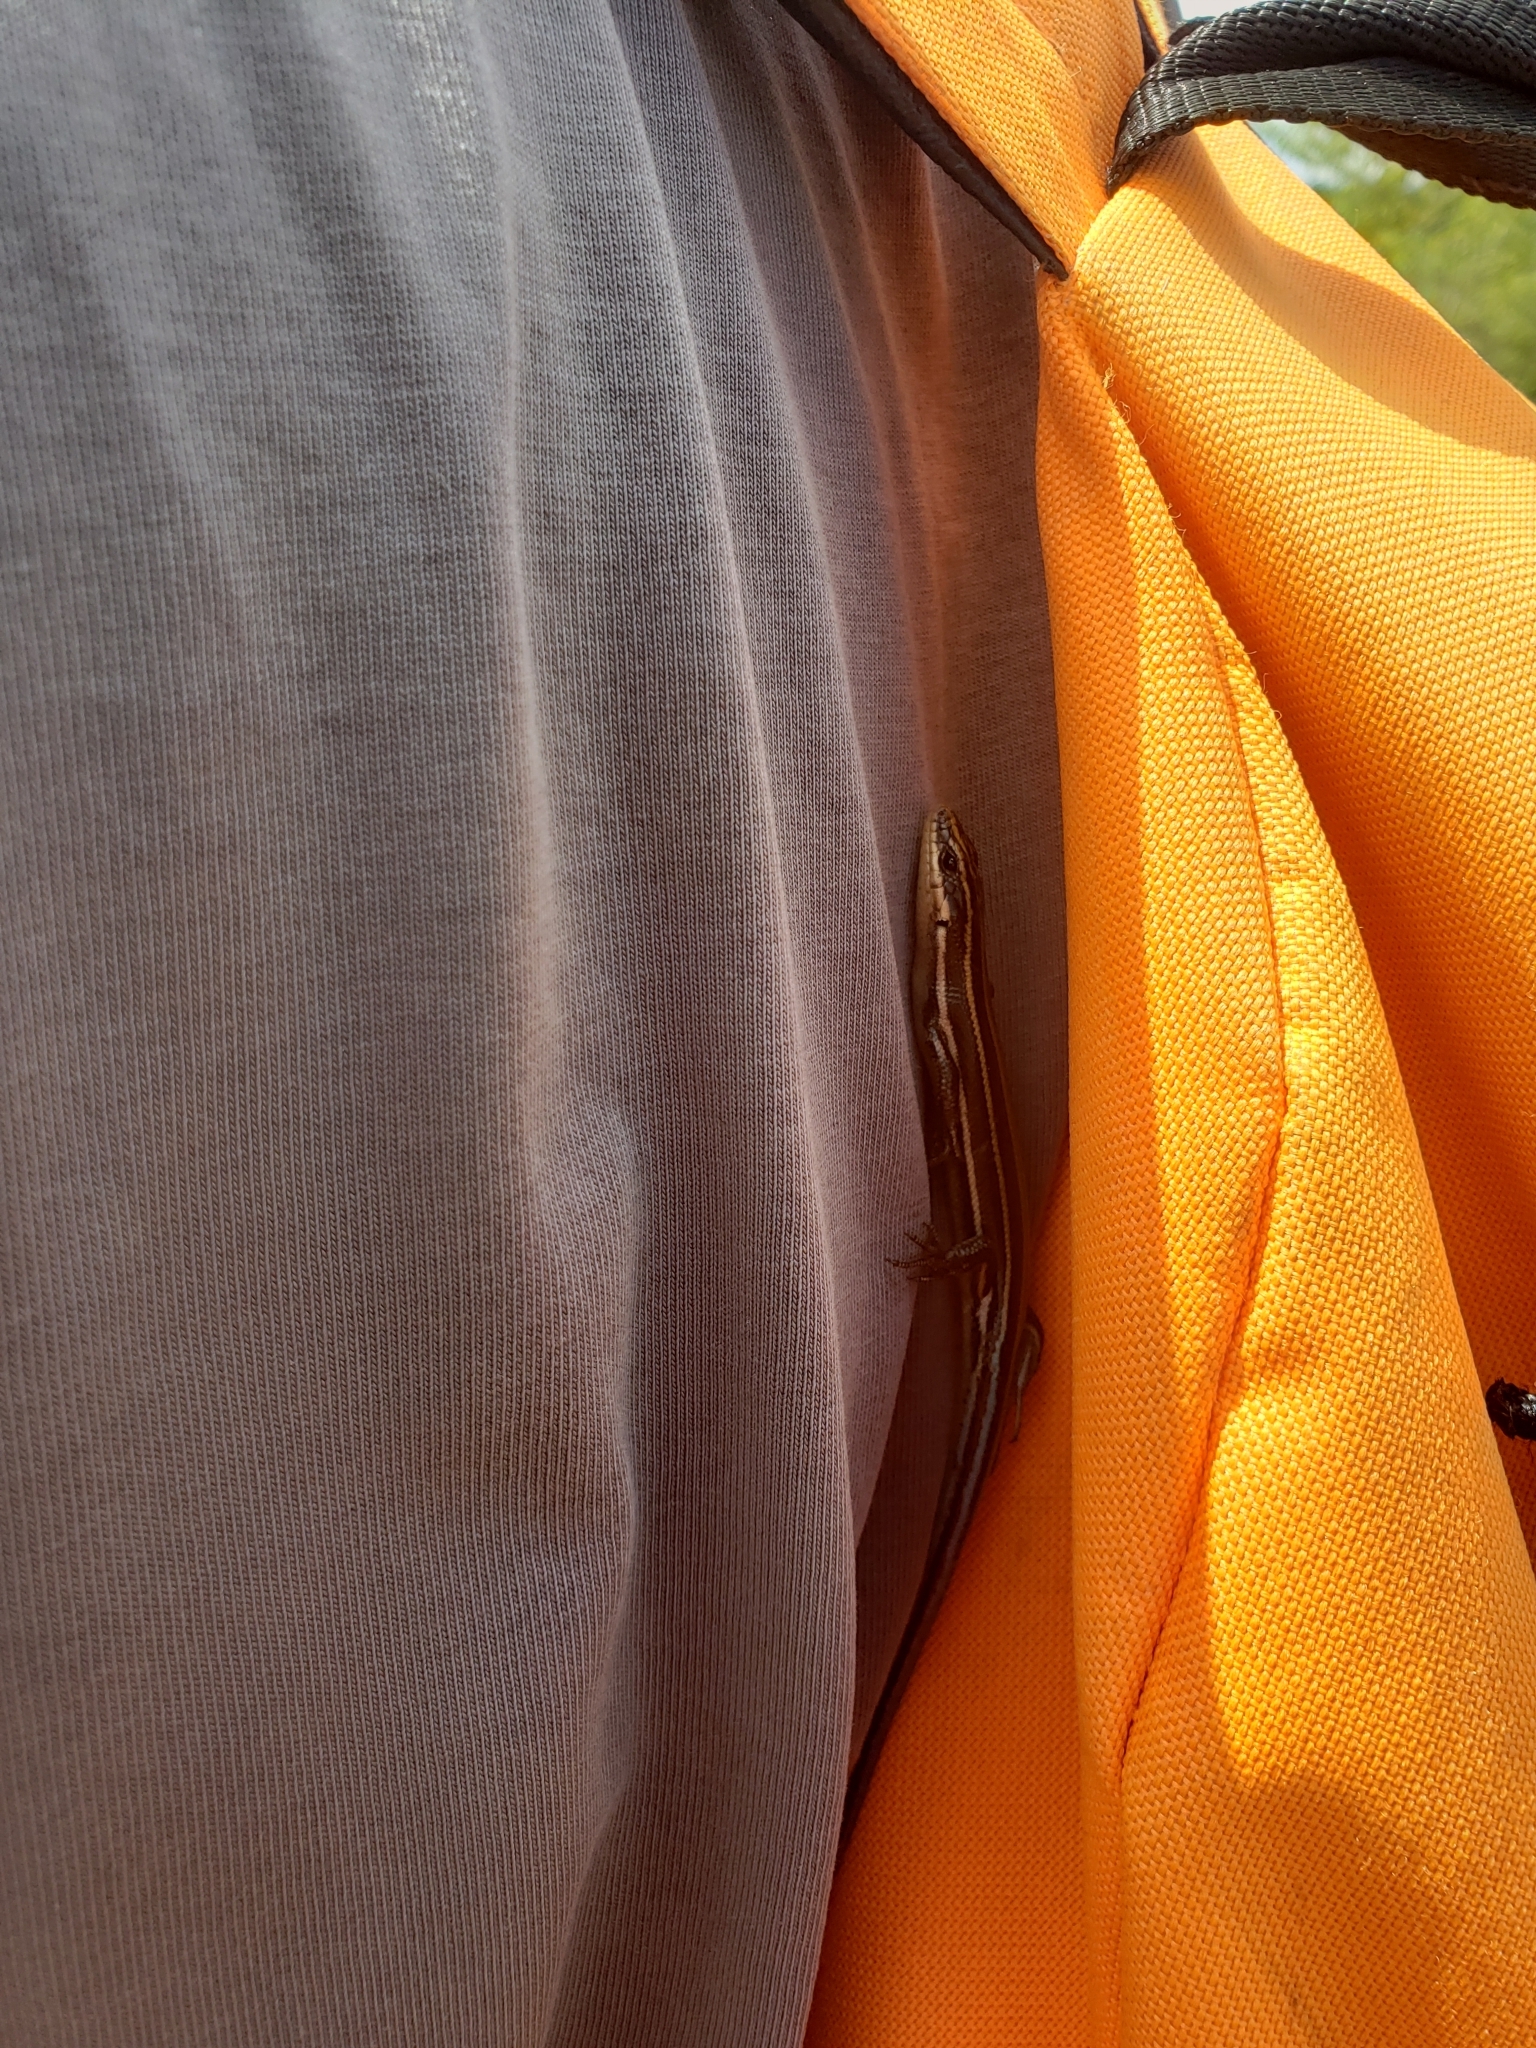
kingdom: Animalia
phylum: Chordata
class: Squamata
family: Scincidae
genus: Plestiodon
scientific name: Plestiodon fasciatus
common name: Five-lined skink
